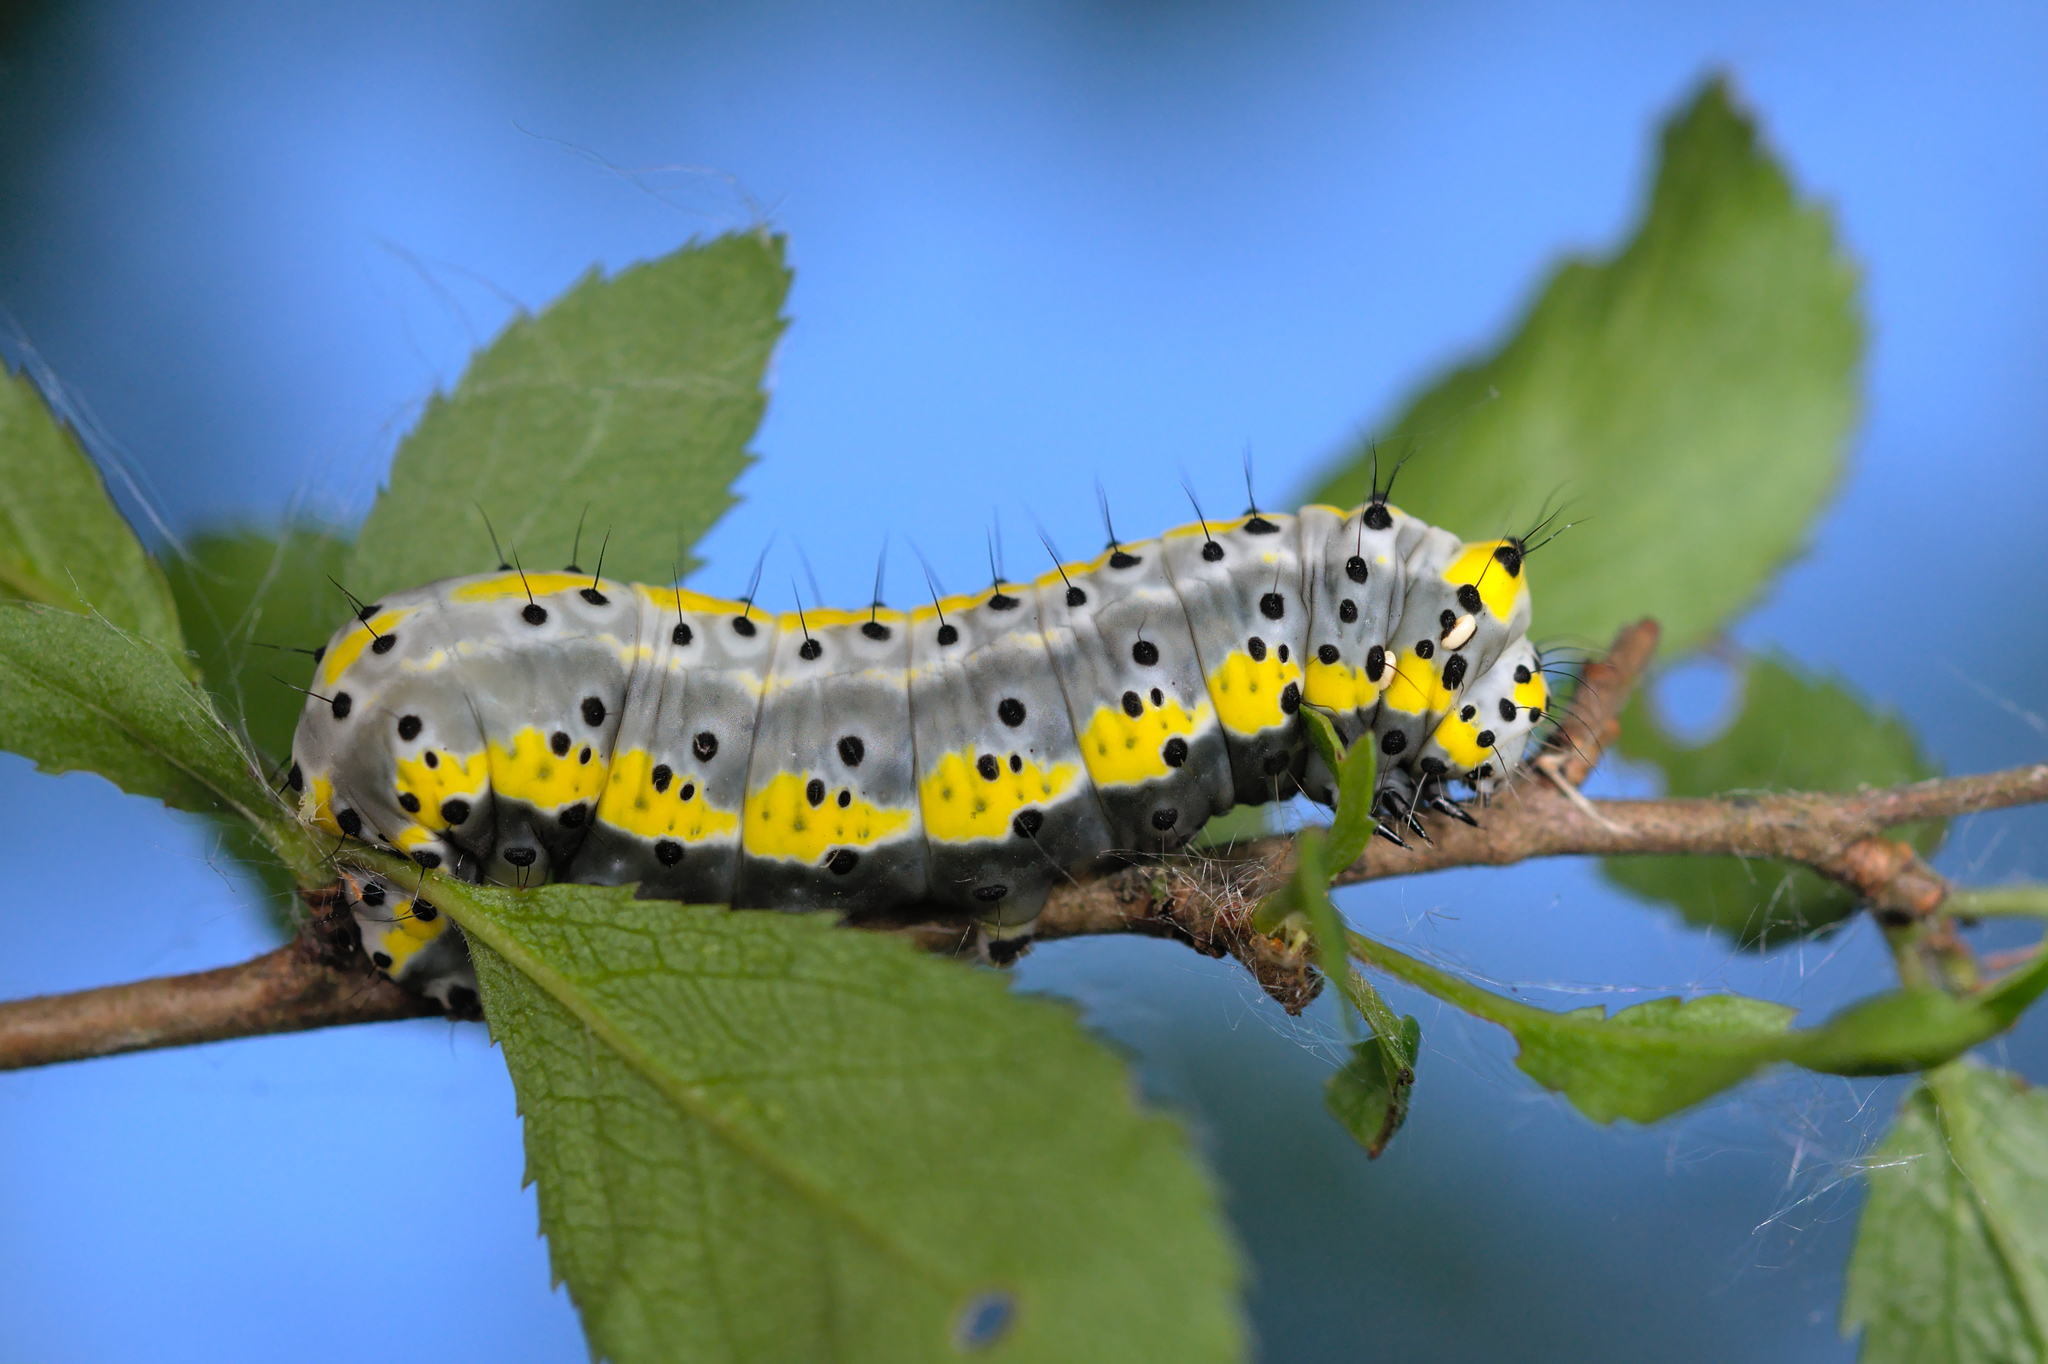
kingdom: Animalia
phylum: Arthropoda
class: Insecta
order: Lepidoptera
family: Noctuidae
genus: Diloba
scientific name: Diloba caeruleocephala
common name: Figure of eight
